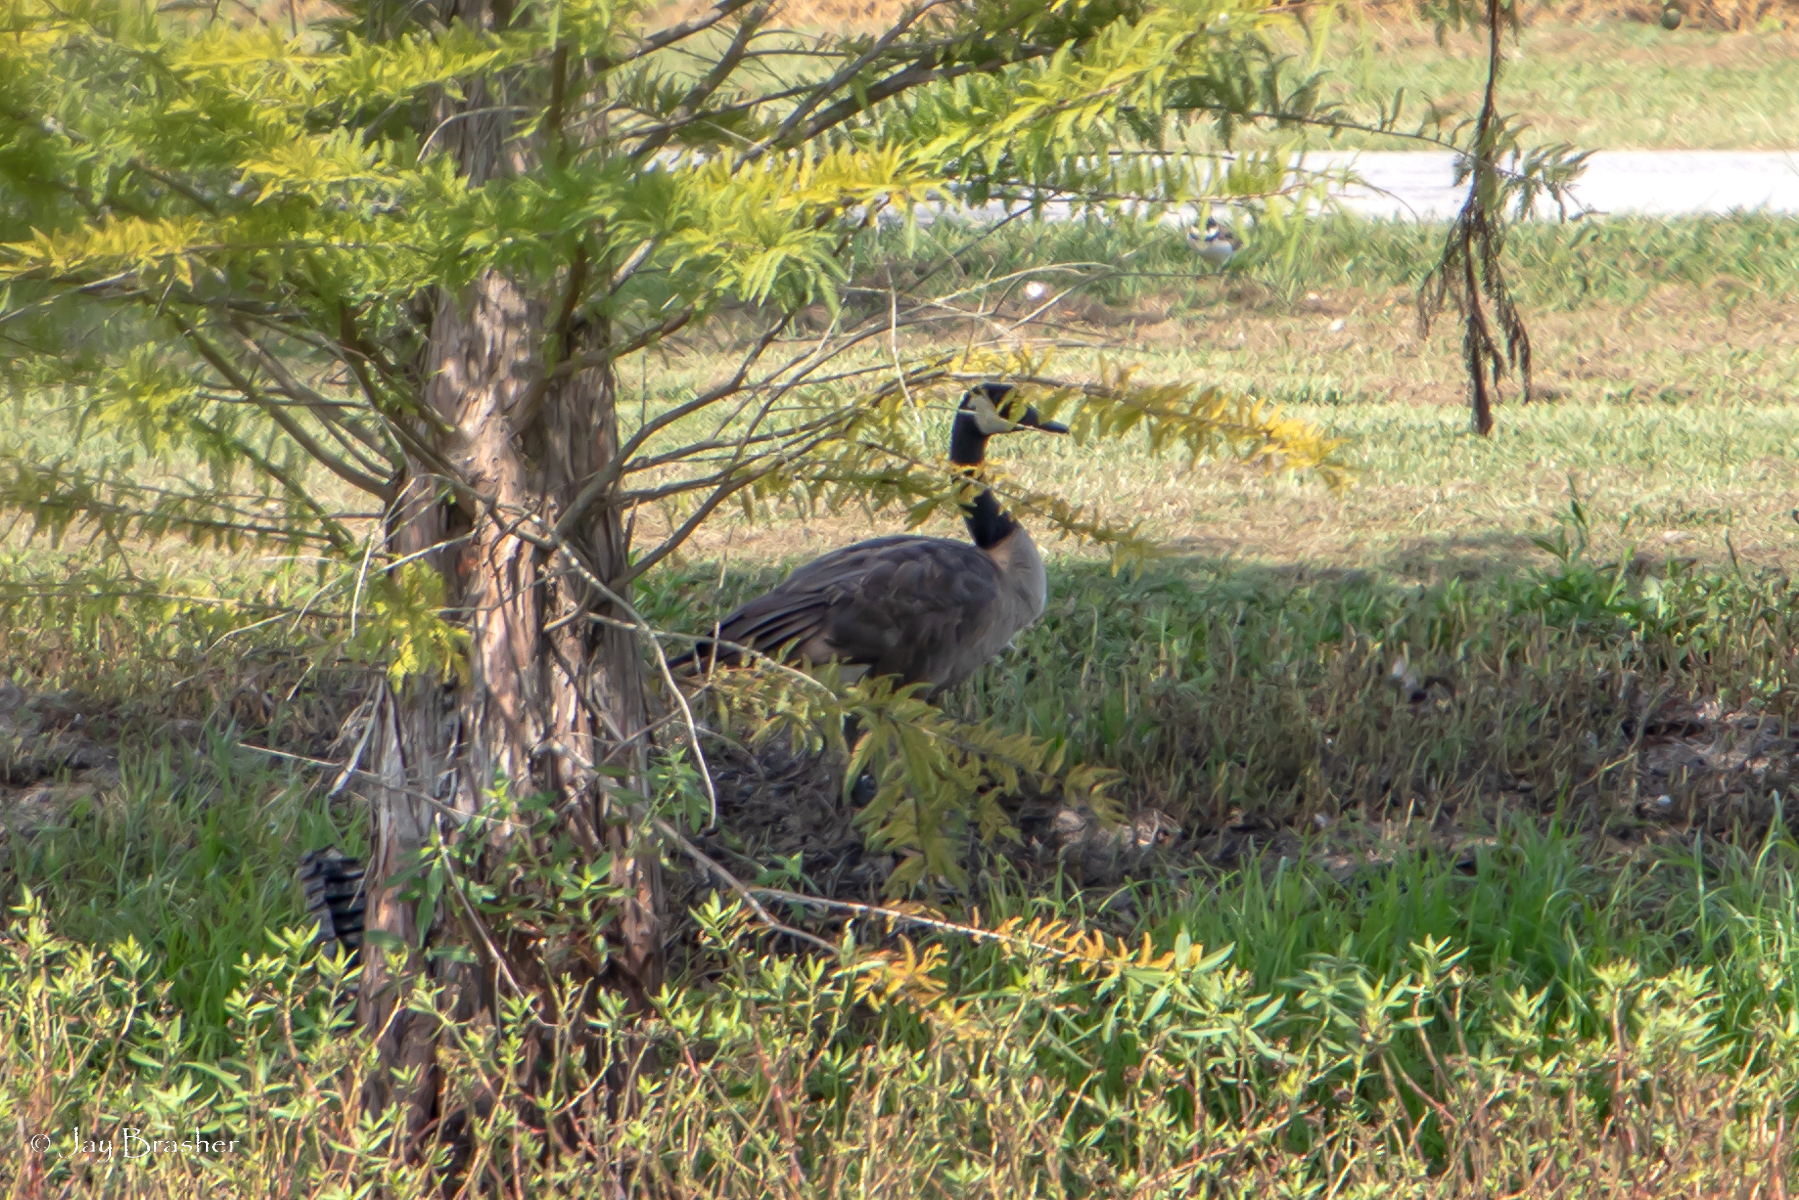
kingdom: Animalia
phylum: Chordata
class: Aves
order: Anseriformes
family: Anatidae
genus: Branta
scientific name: Branta canadensis
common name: Canada goose
